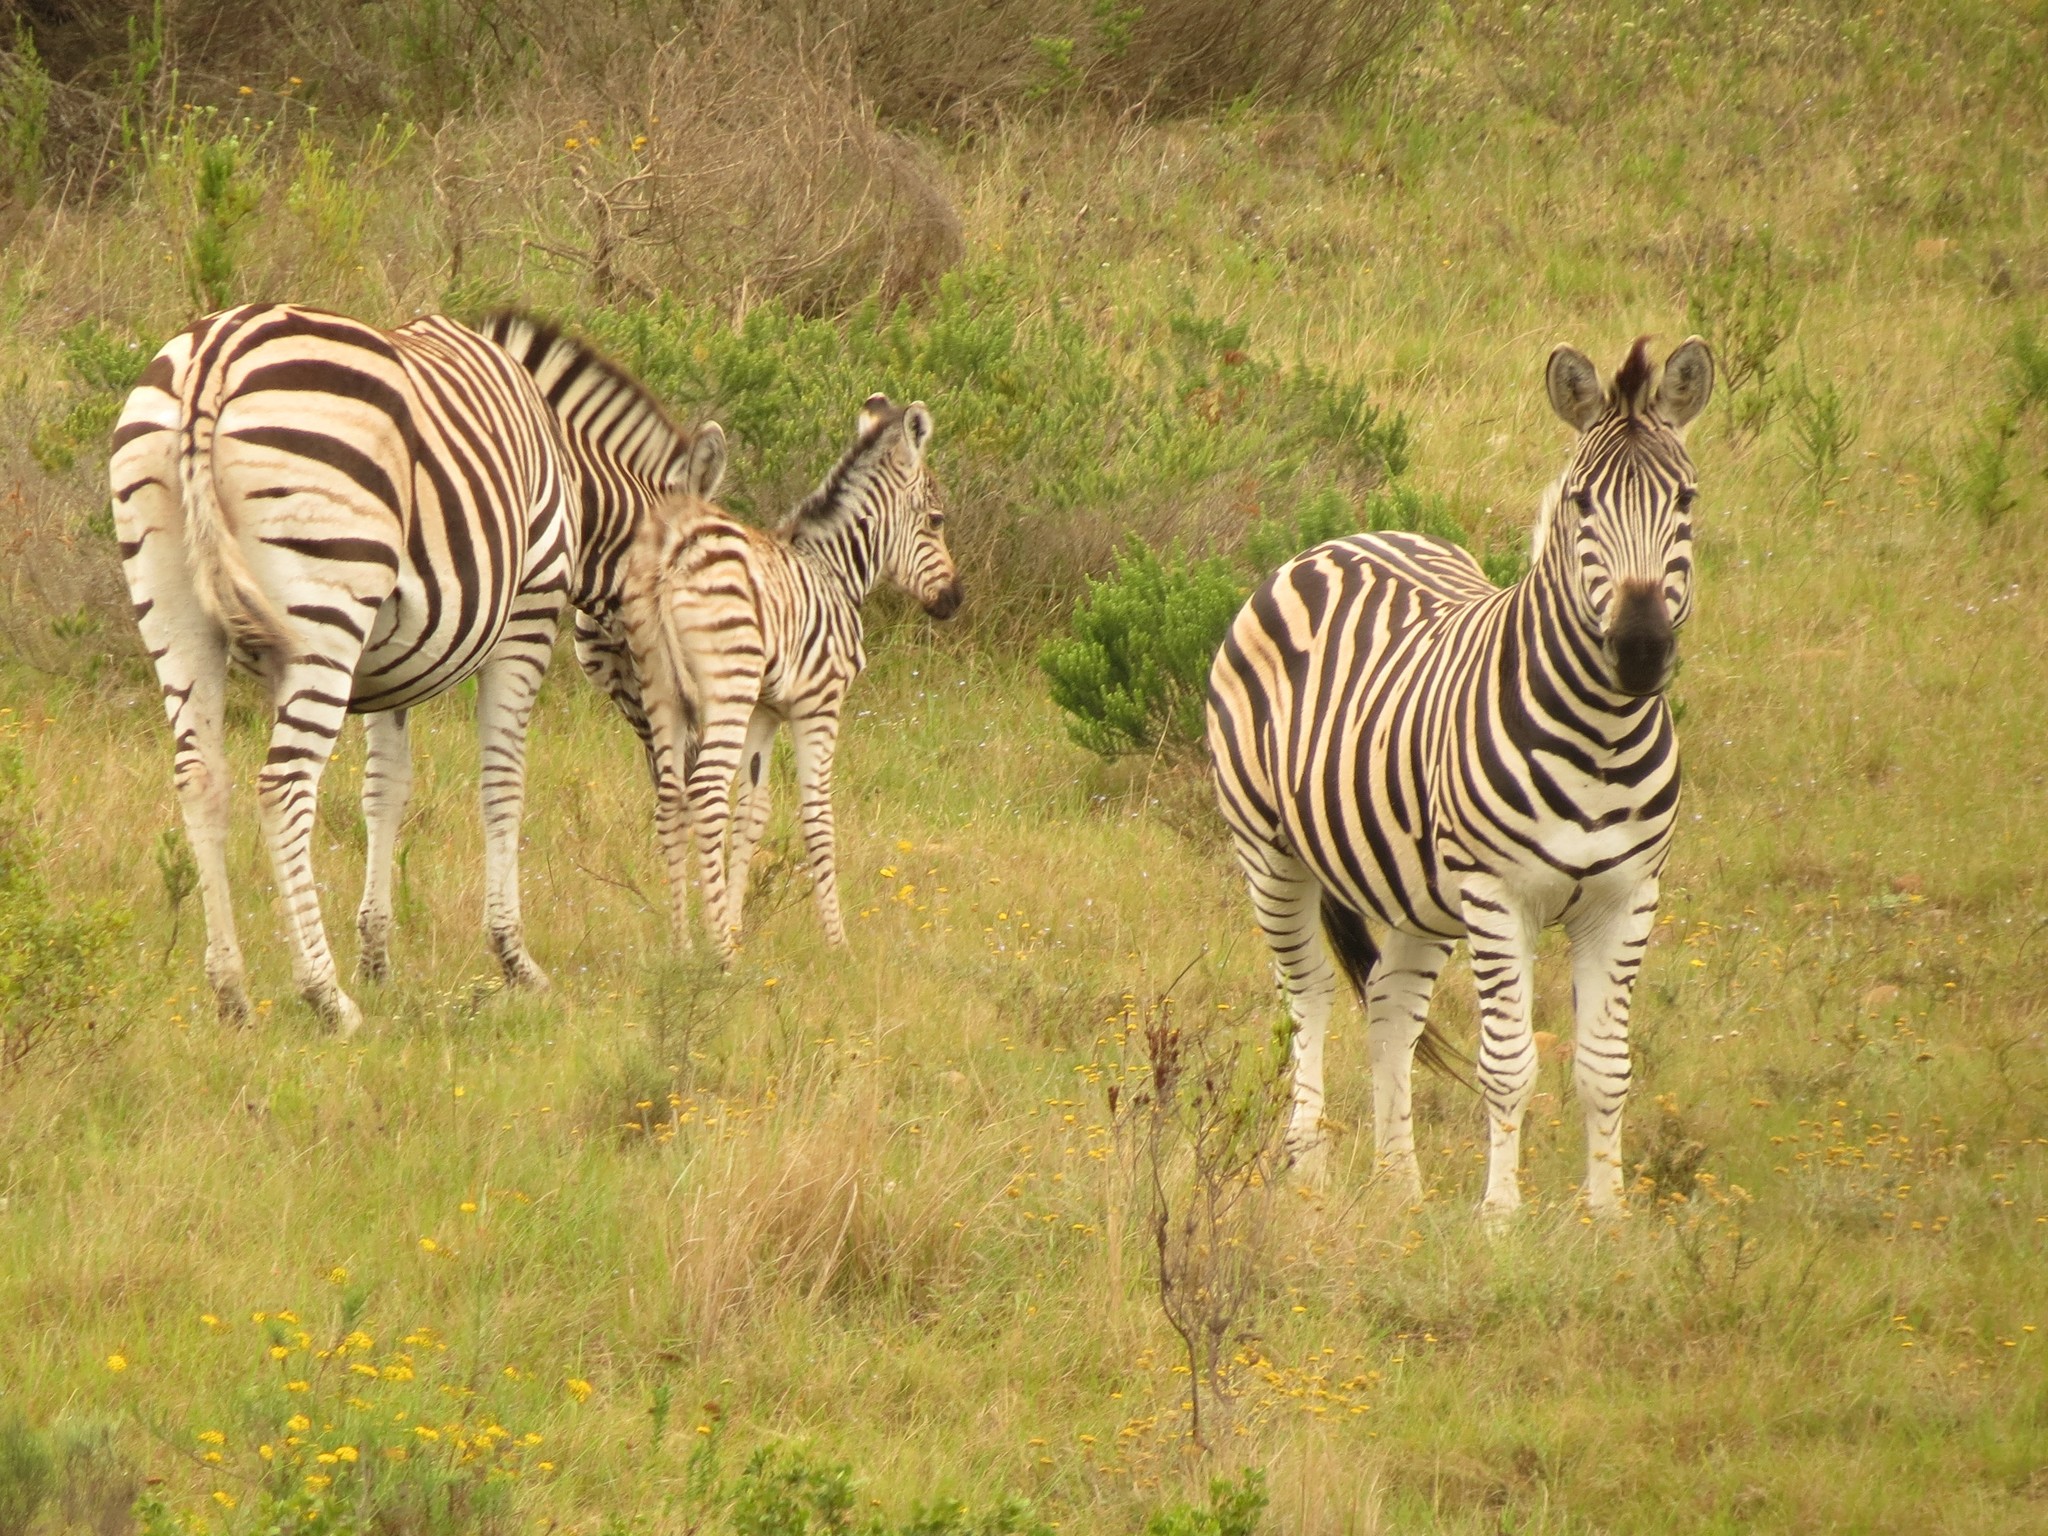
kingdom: Animalia
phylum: Chordata
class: Mammalia
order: Perissodactyla
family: Equidae
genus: Equus
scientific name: Equus quagga
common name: Plains zebra
